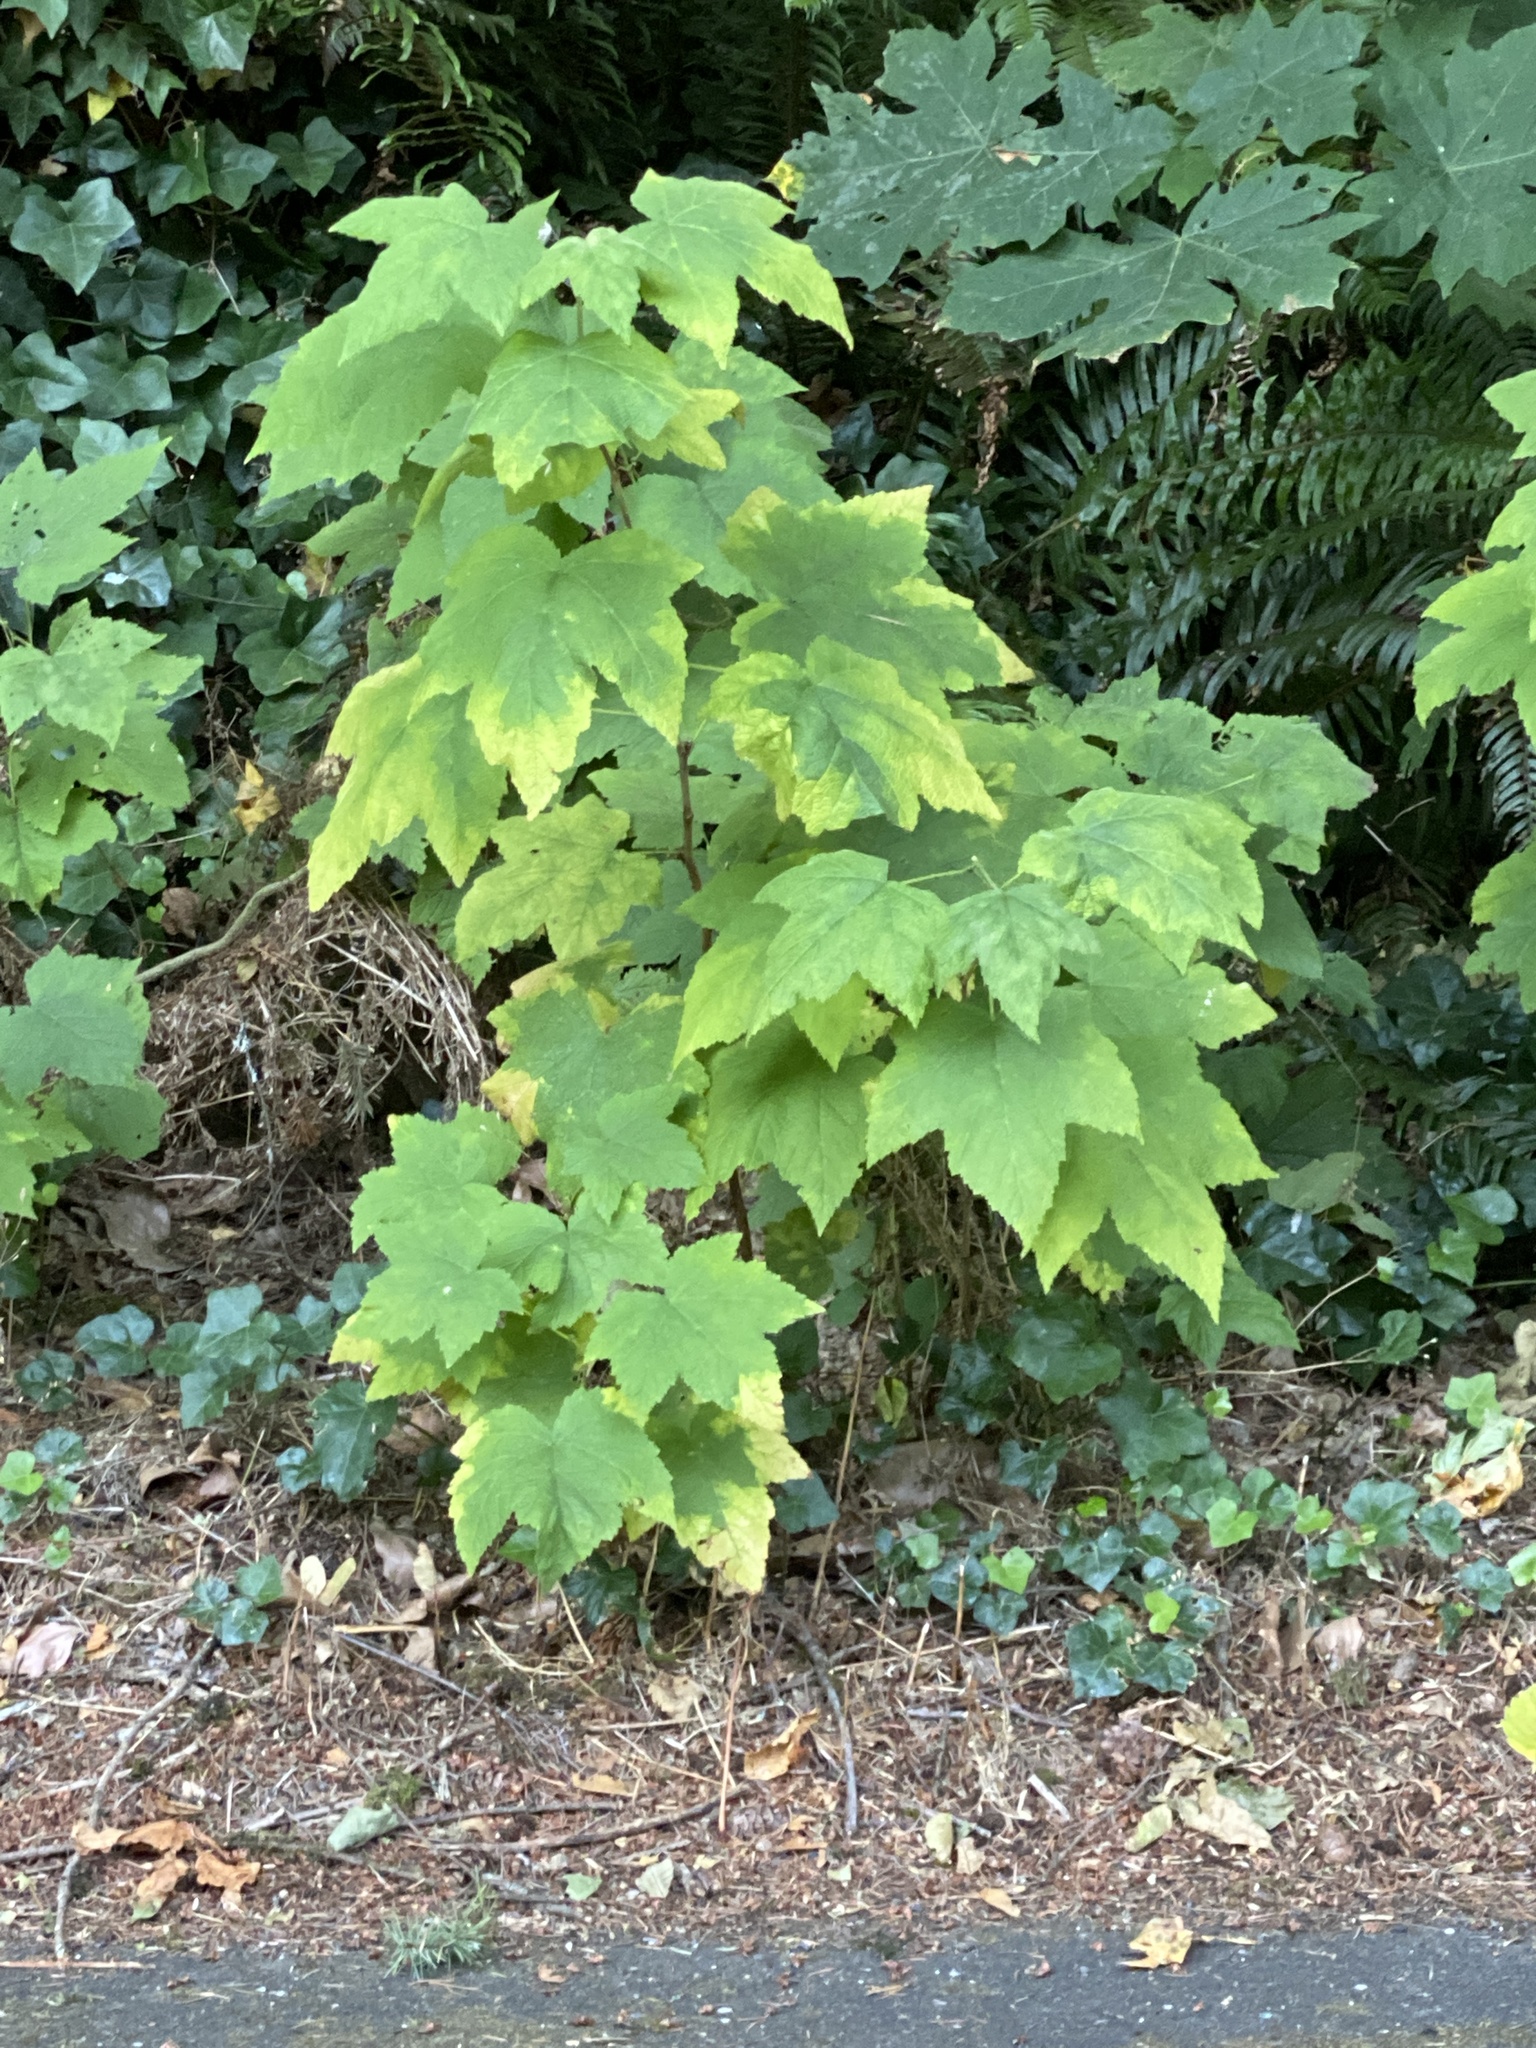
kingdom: Plantae
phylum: Tracheophyta
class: Magnoliopsida
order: Rosales
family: Rosaceae
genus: Rubus
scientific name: Rubus parviflorus
